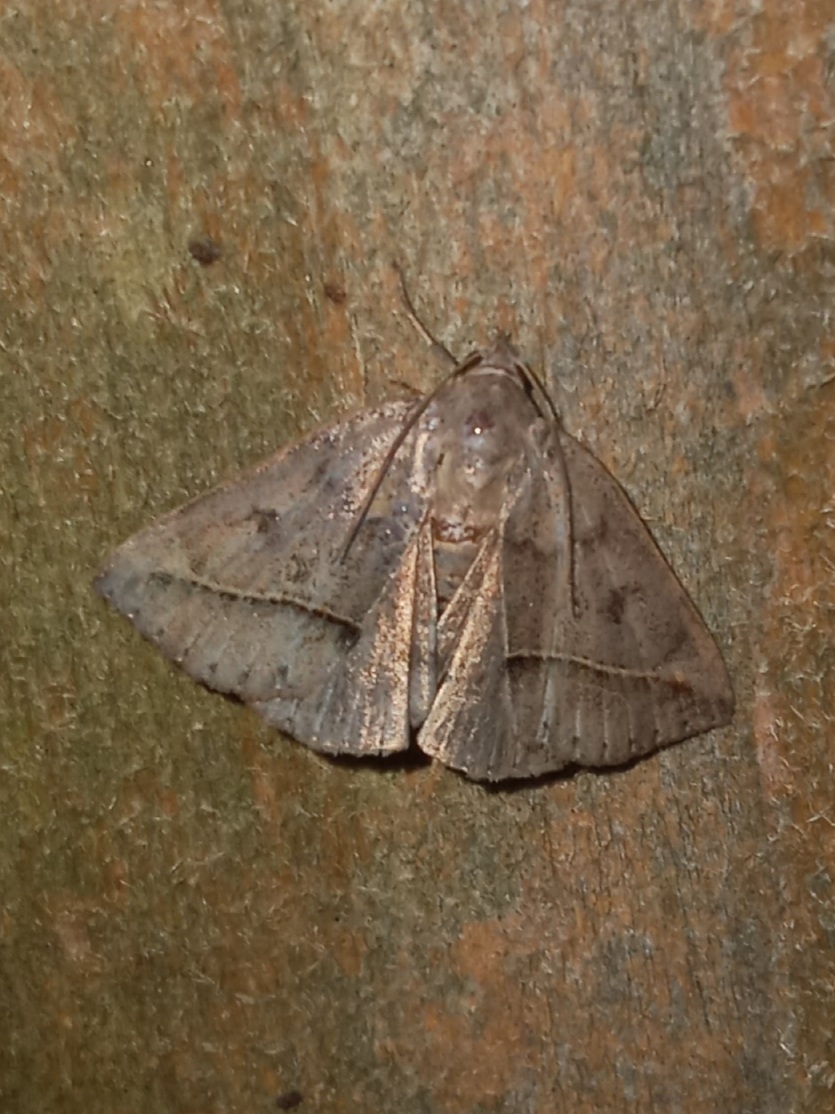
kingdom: Animalia
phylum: Arthropoda
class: Insecta
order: Lepidoptera
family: Erebidae
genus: Argyrostrotis
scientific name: Argyrostrotis flavistriaria
